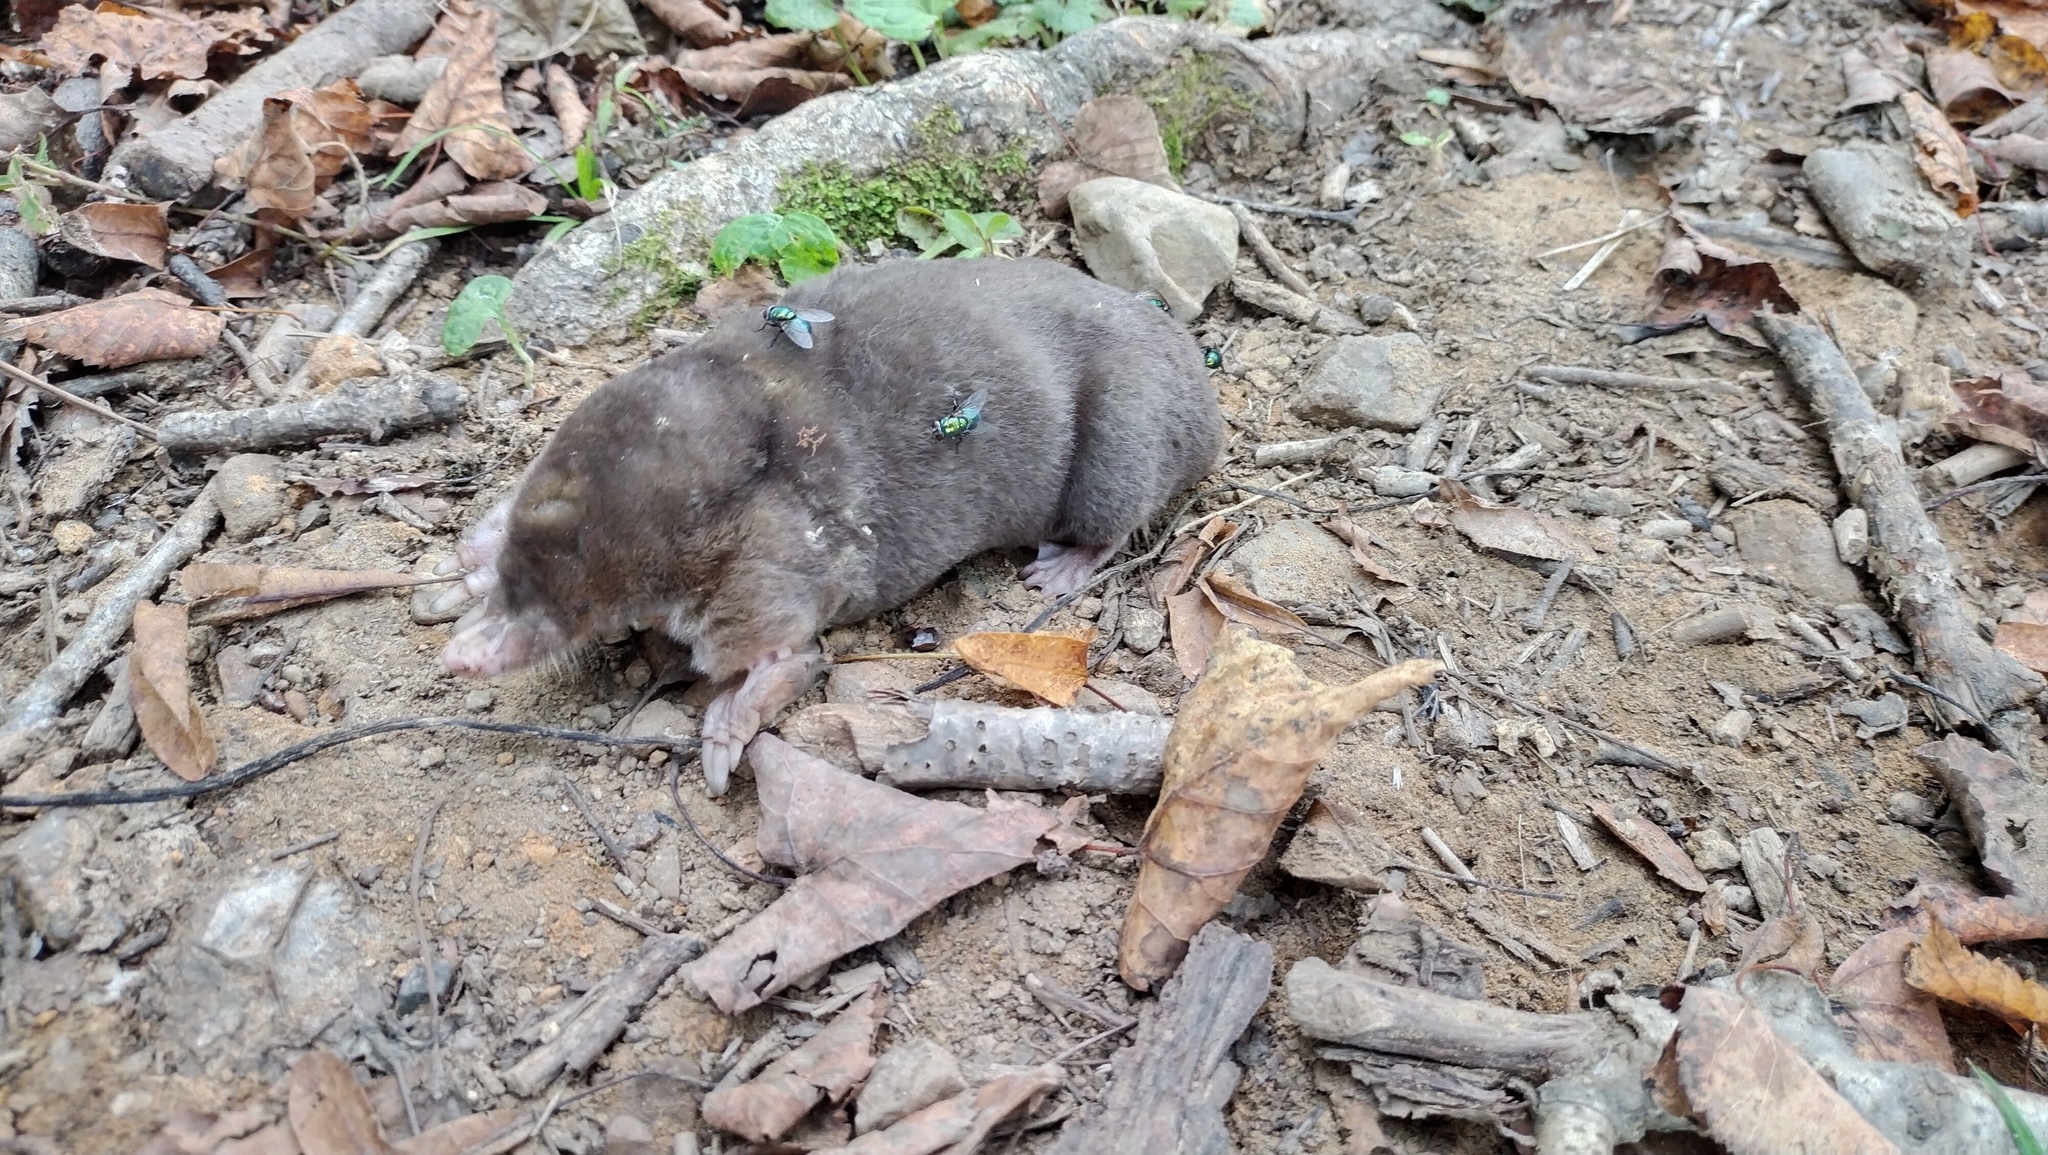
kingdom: Animalia
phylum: Chordata
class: Mammalia
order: Soricomorpha
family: Talpidae
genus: Mogera
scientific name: Mogera wogura
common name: Japanese mole
